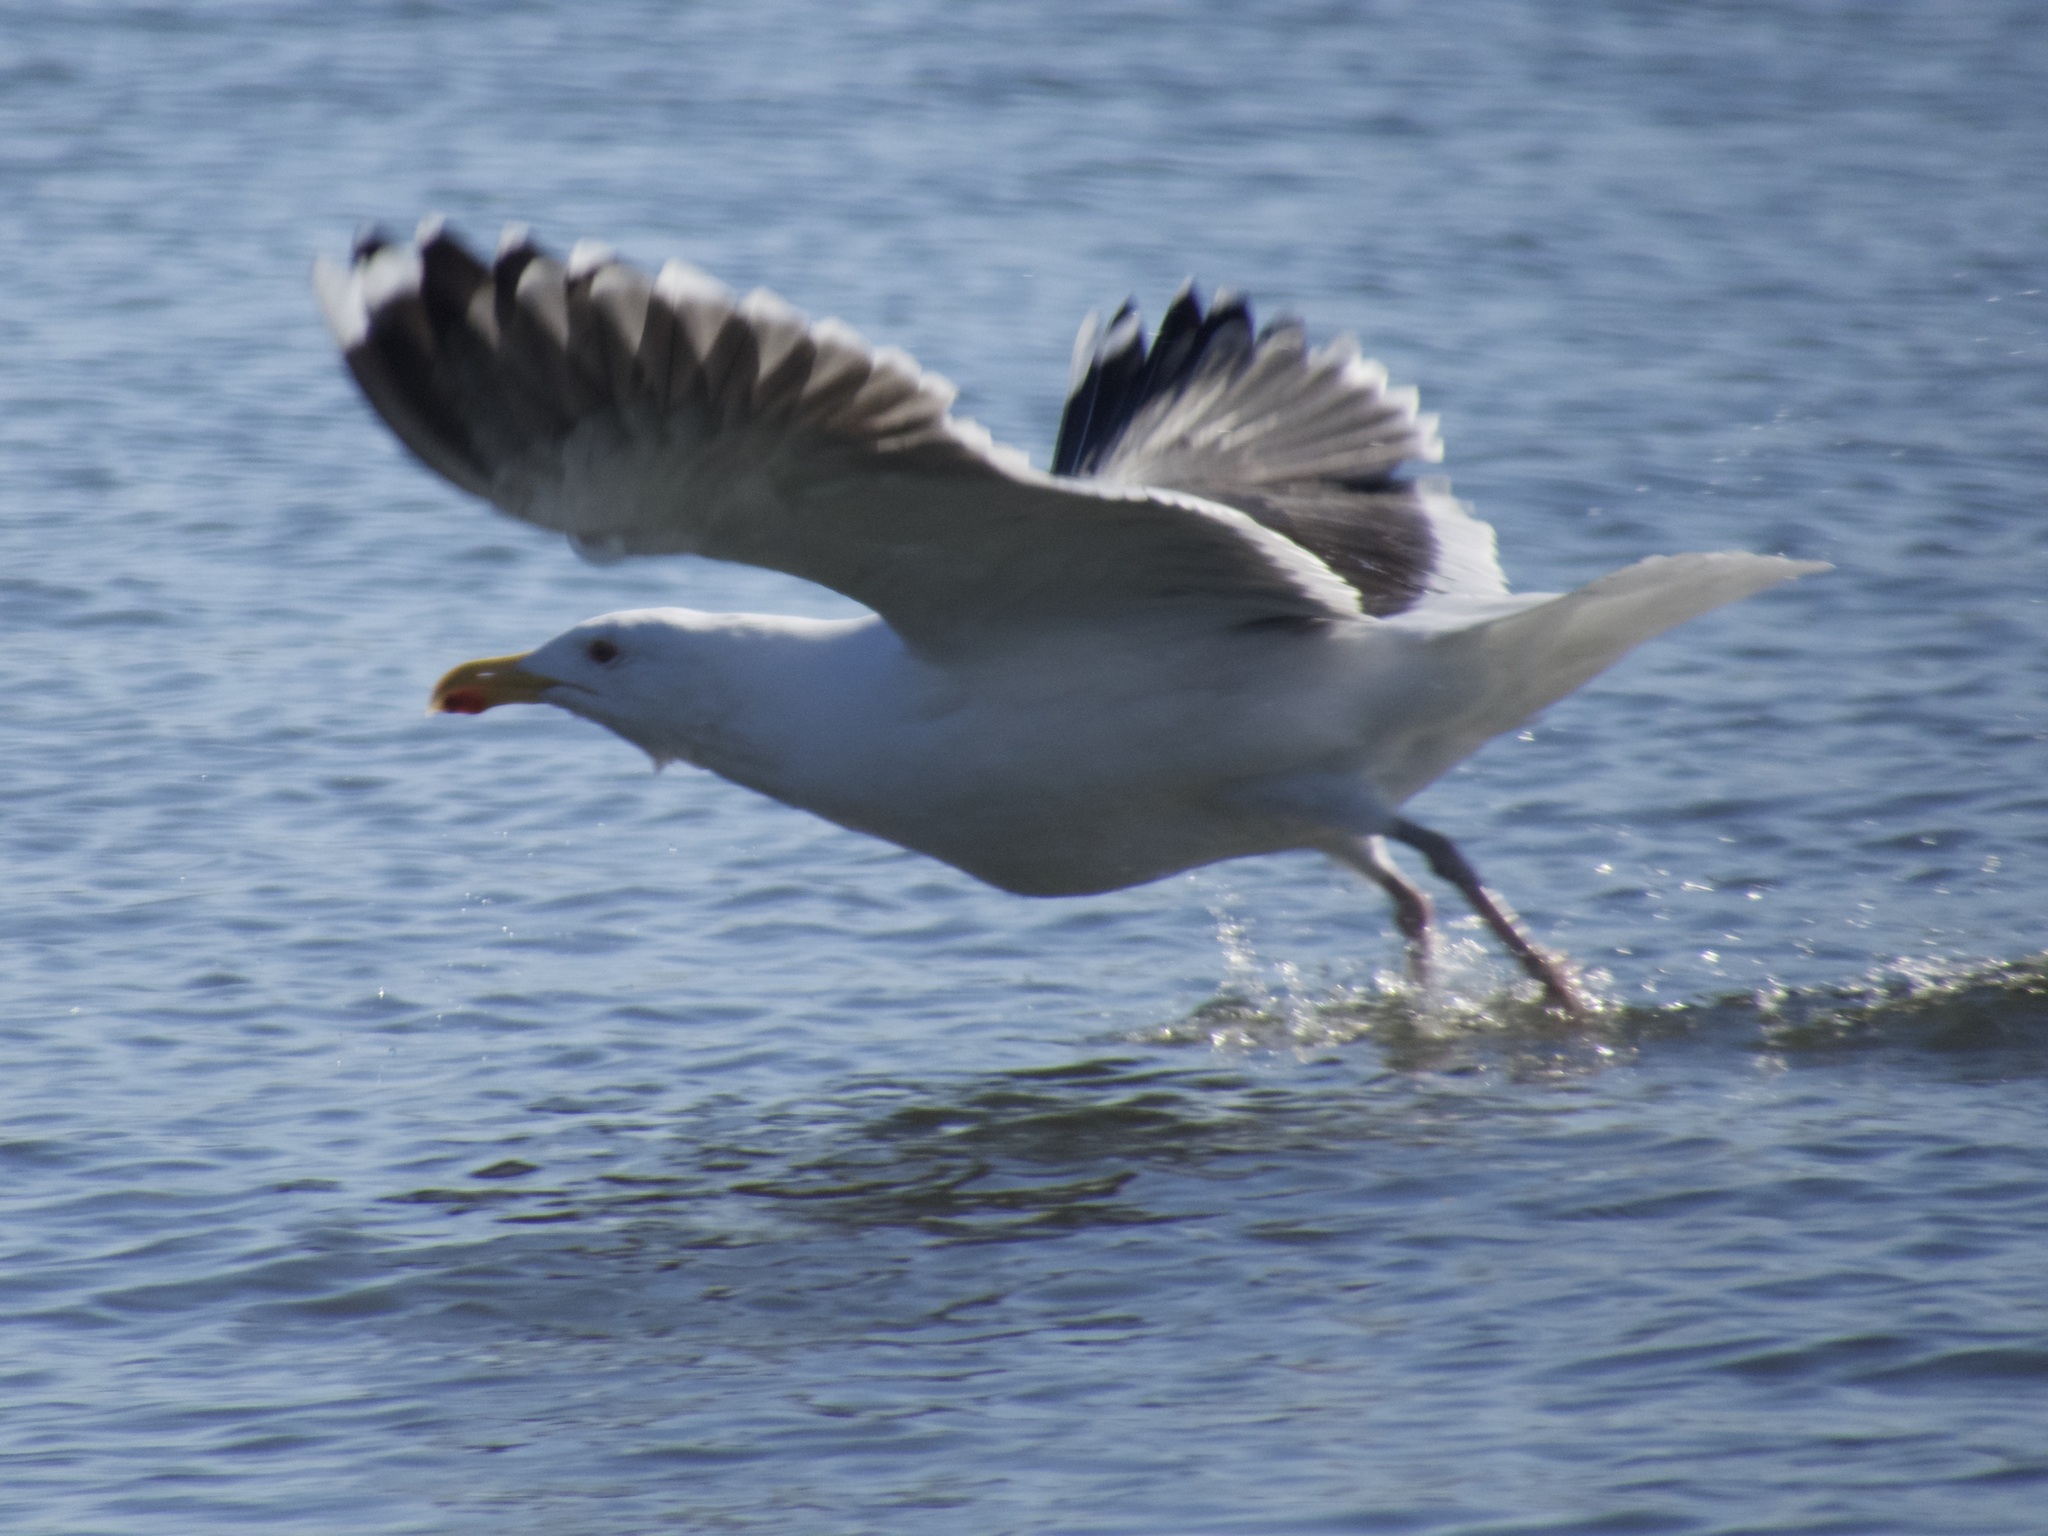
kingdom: Animalia
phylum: Chordata
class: Aves
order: Charadriiformes
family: Laridae
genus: Larus
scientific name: Larus marinus
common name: Great black-backed gull
